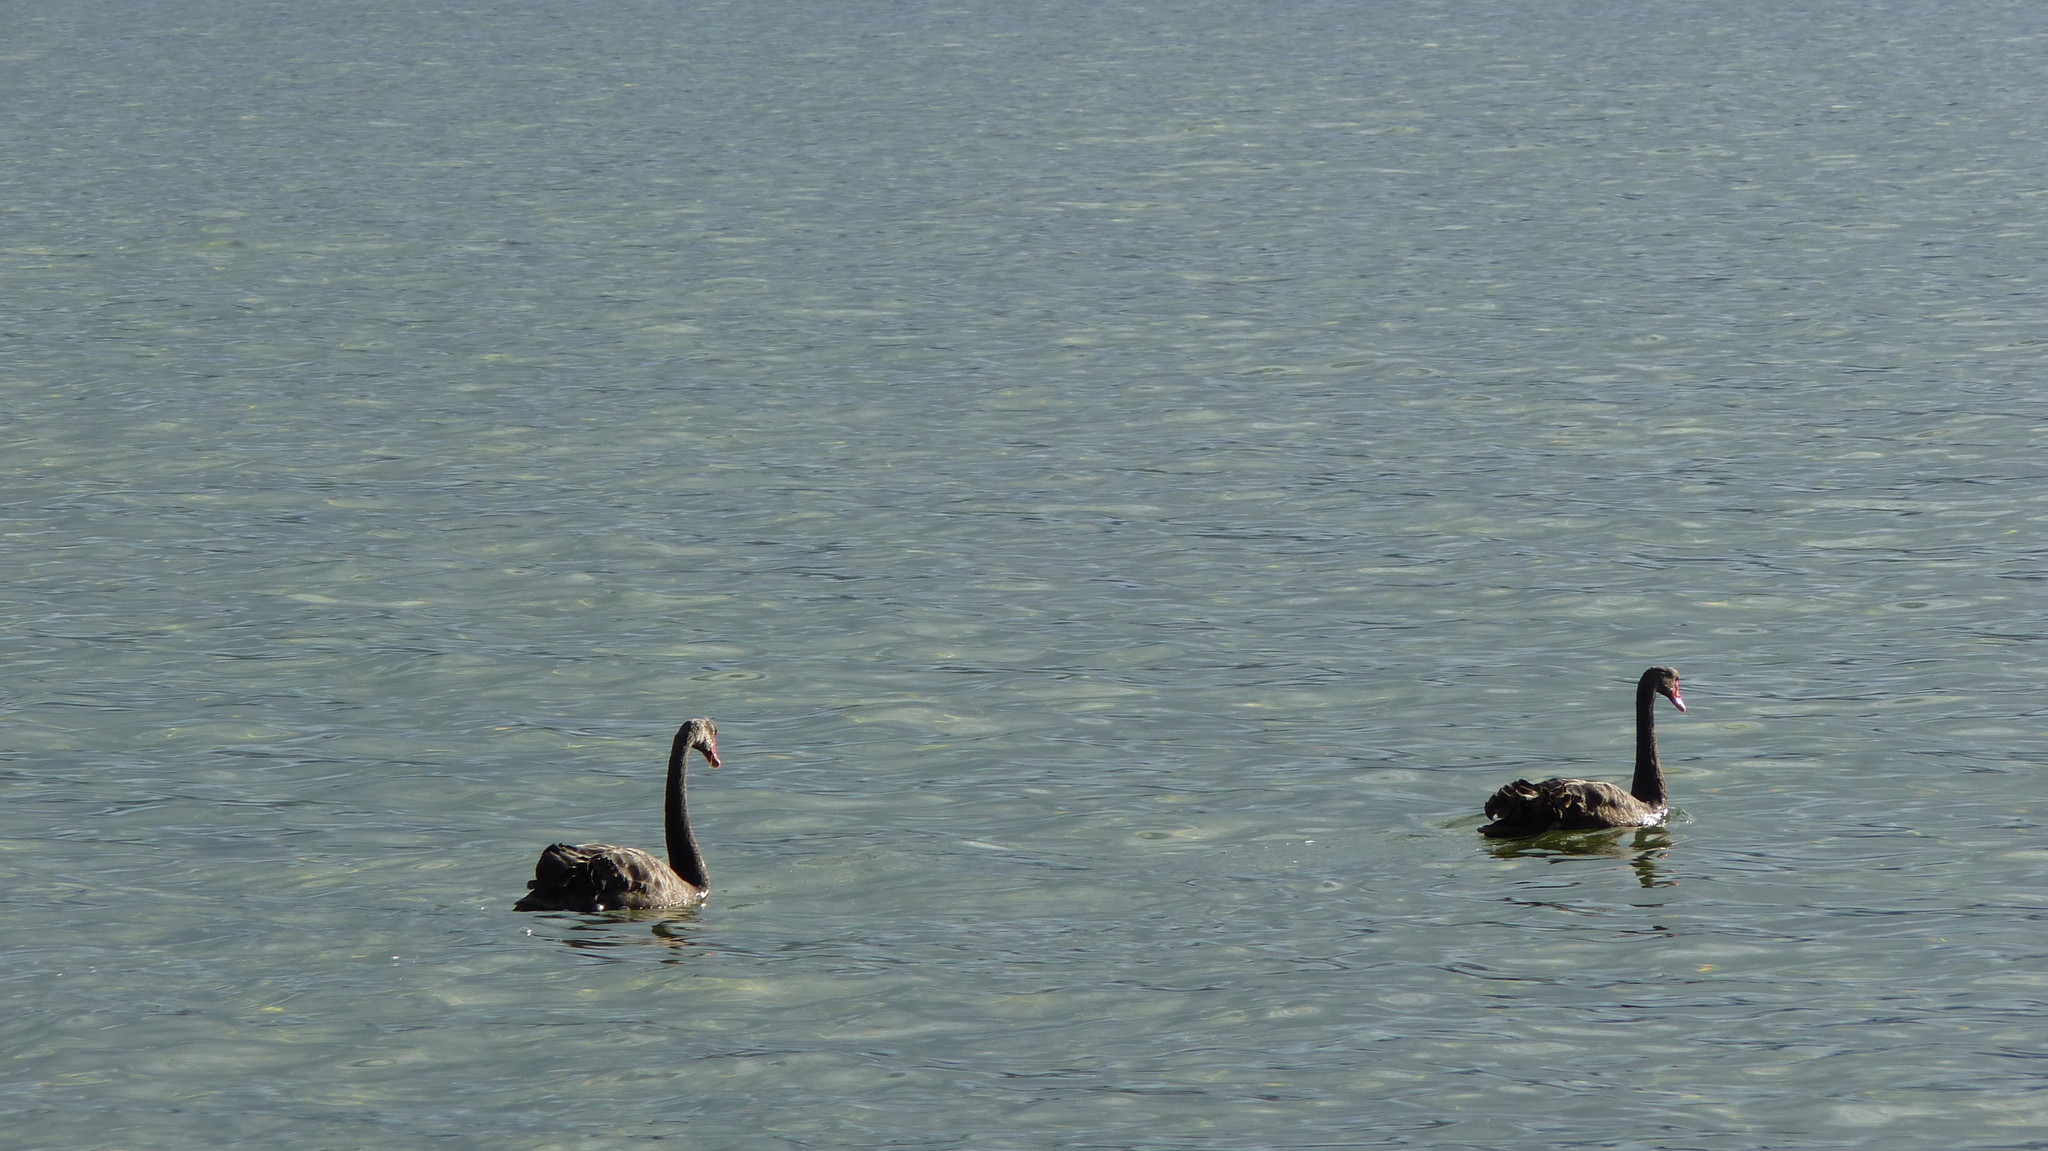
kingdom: Animalia
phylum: Chordata
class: Aves
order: Anseriformes
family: Anatidae
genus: Cygnus
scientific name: Cygnus atratus
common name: Black swan
